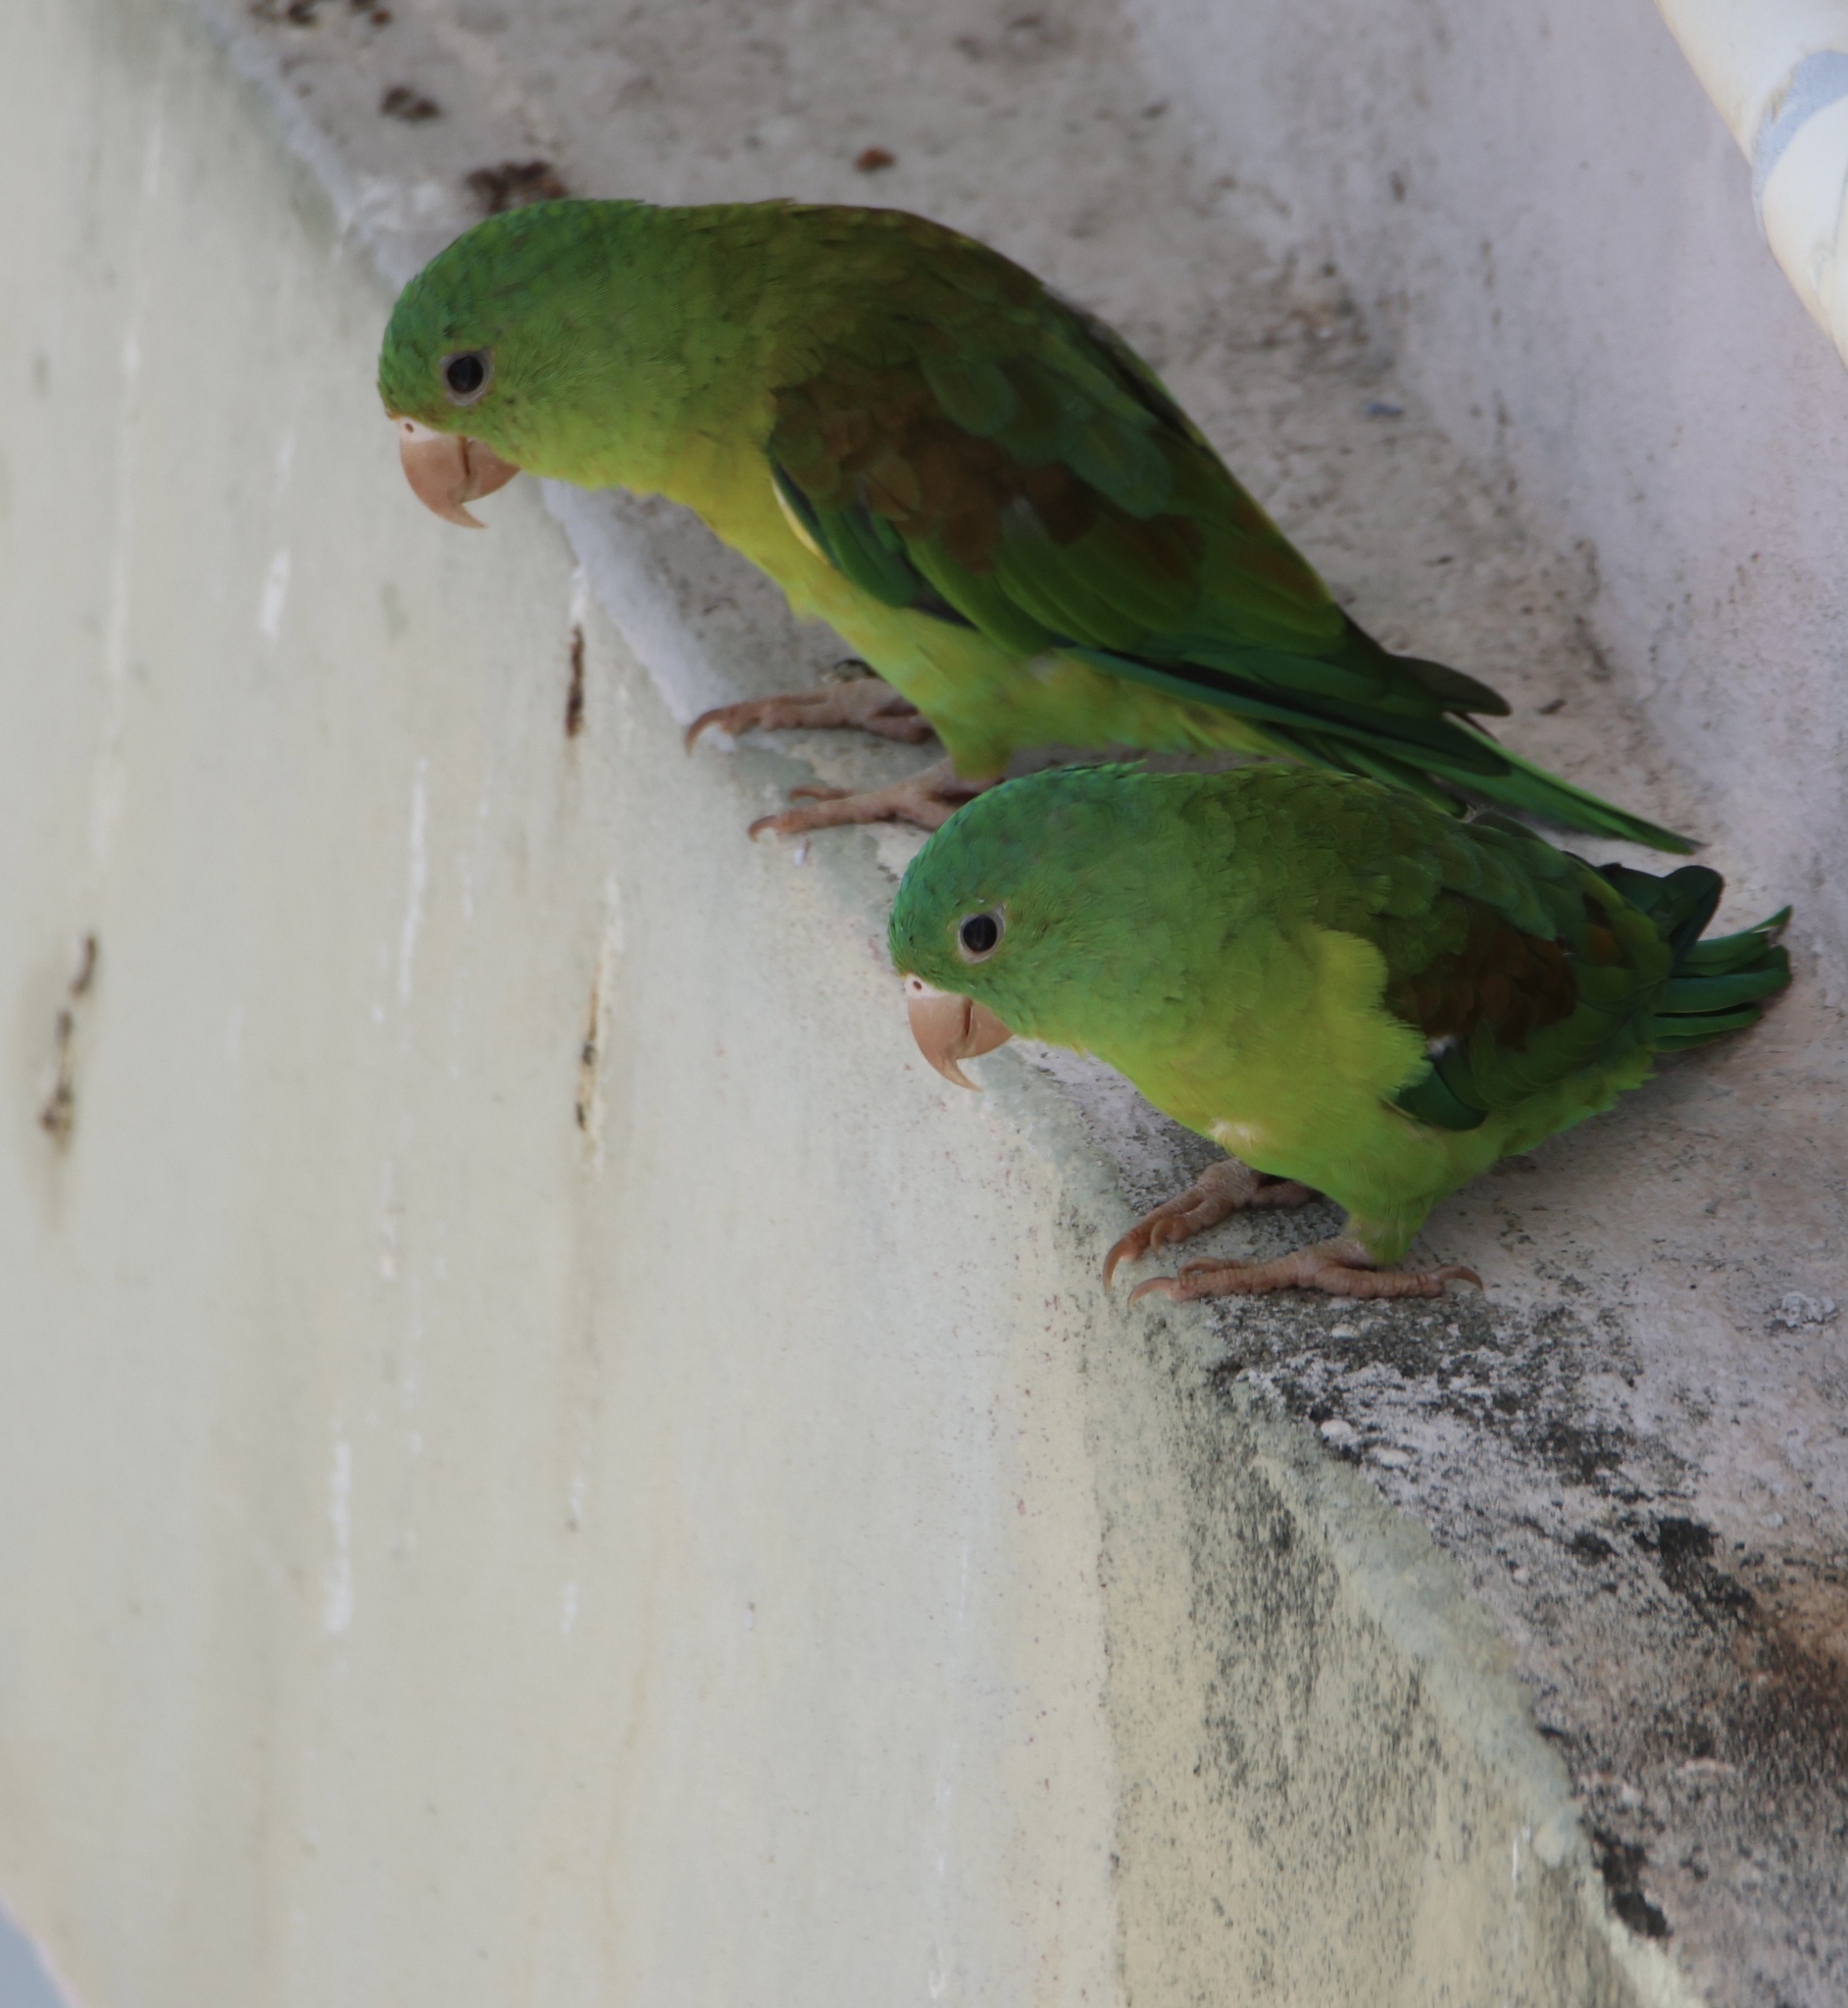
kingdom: Animalia
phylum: Chordata
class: Aves
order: Psittaciformes
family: Psittacidae
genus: Brotogeris
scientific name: Brotogeris jugularis
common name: Orange-chinned parakeet
